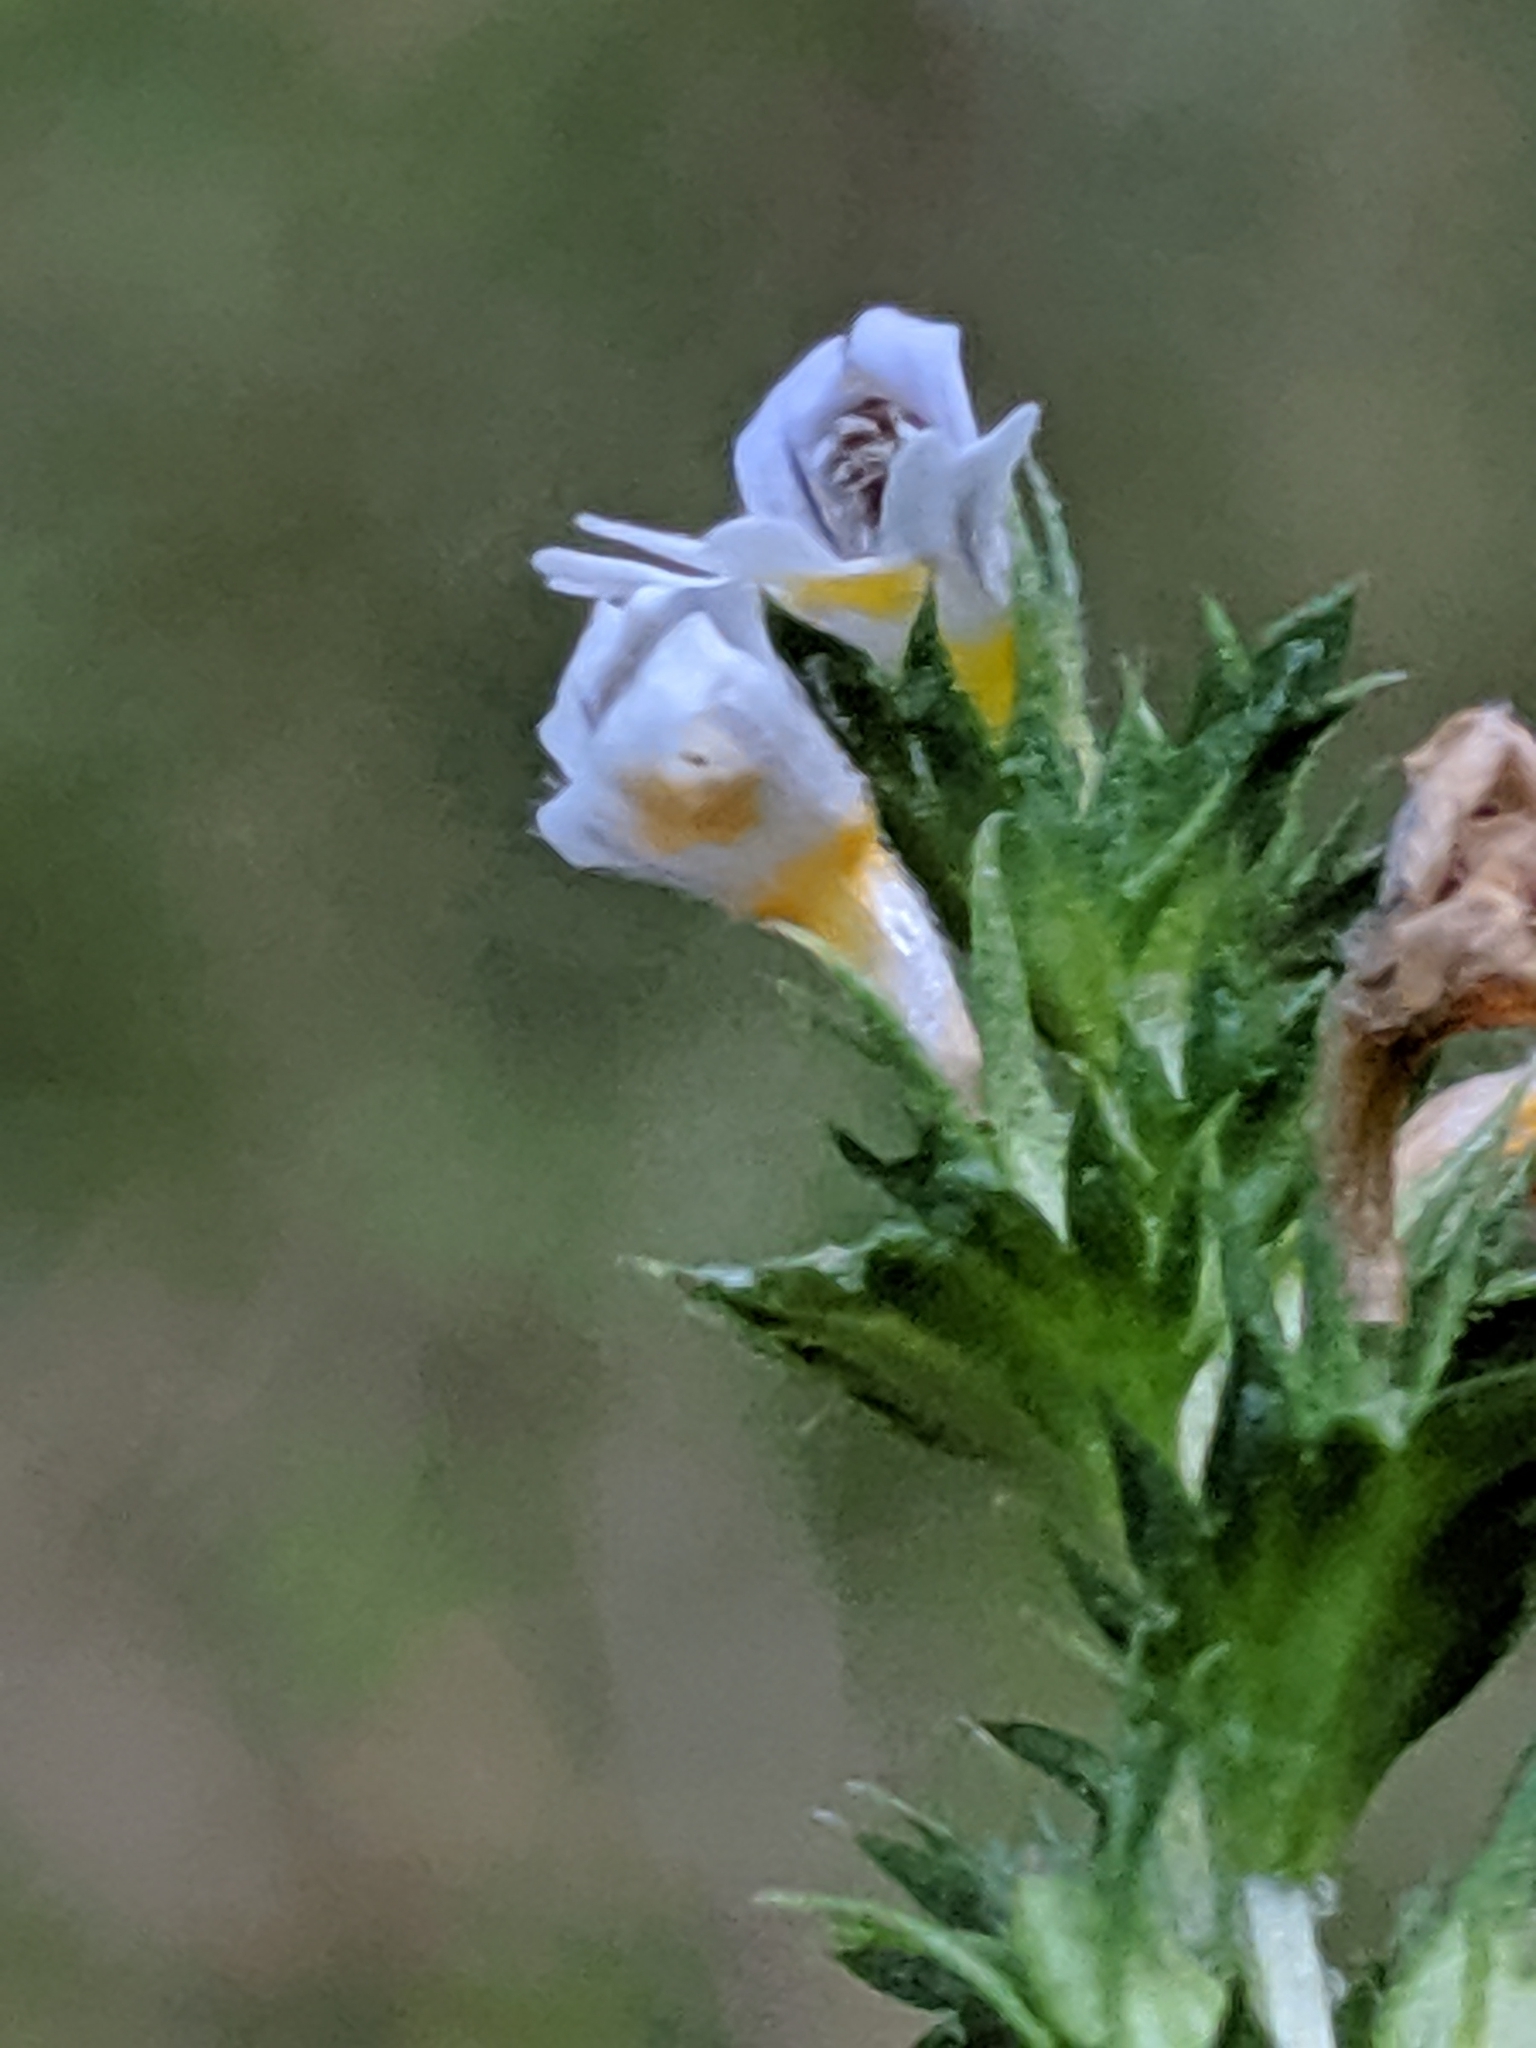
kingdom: Plantae
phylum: Tracheophyta
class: Magnoliopsida
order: Lamiales
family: Orobanchaceae
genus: Euphrasia
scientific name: Euphrasia nemorosa
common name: Common eyebright
